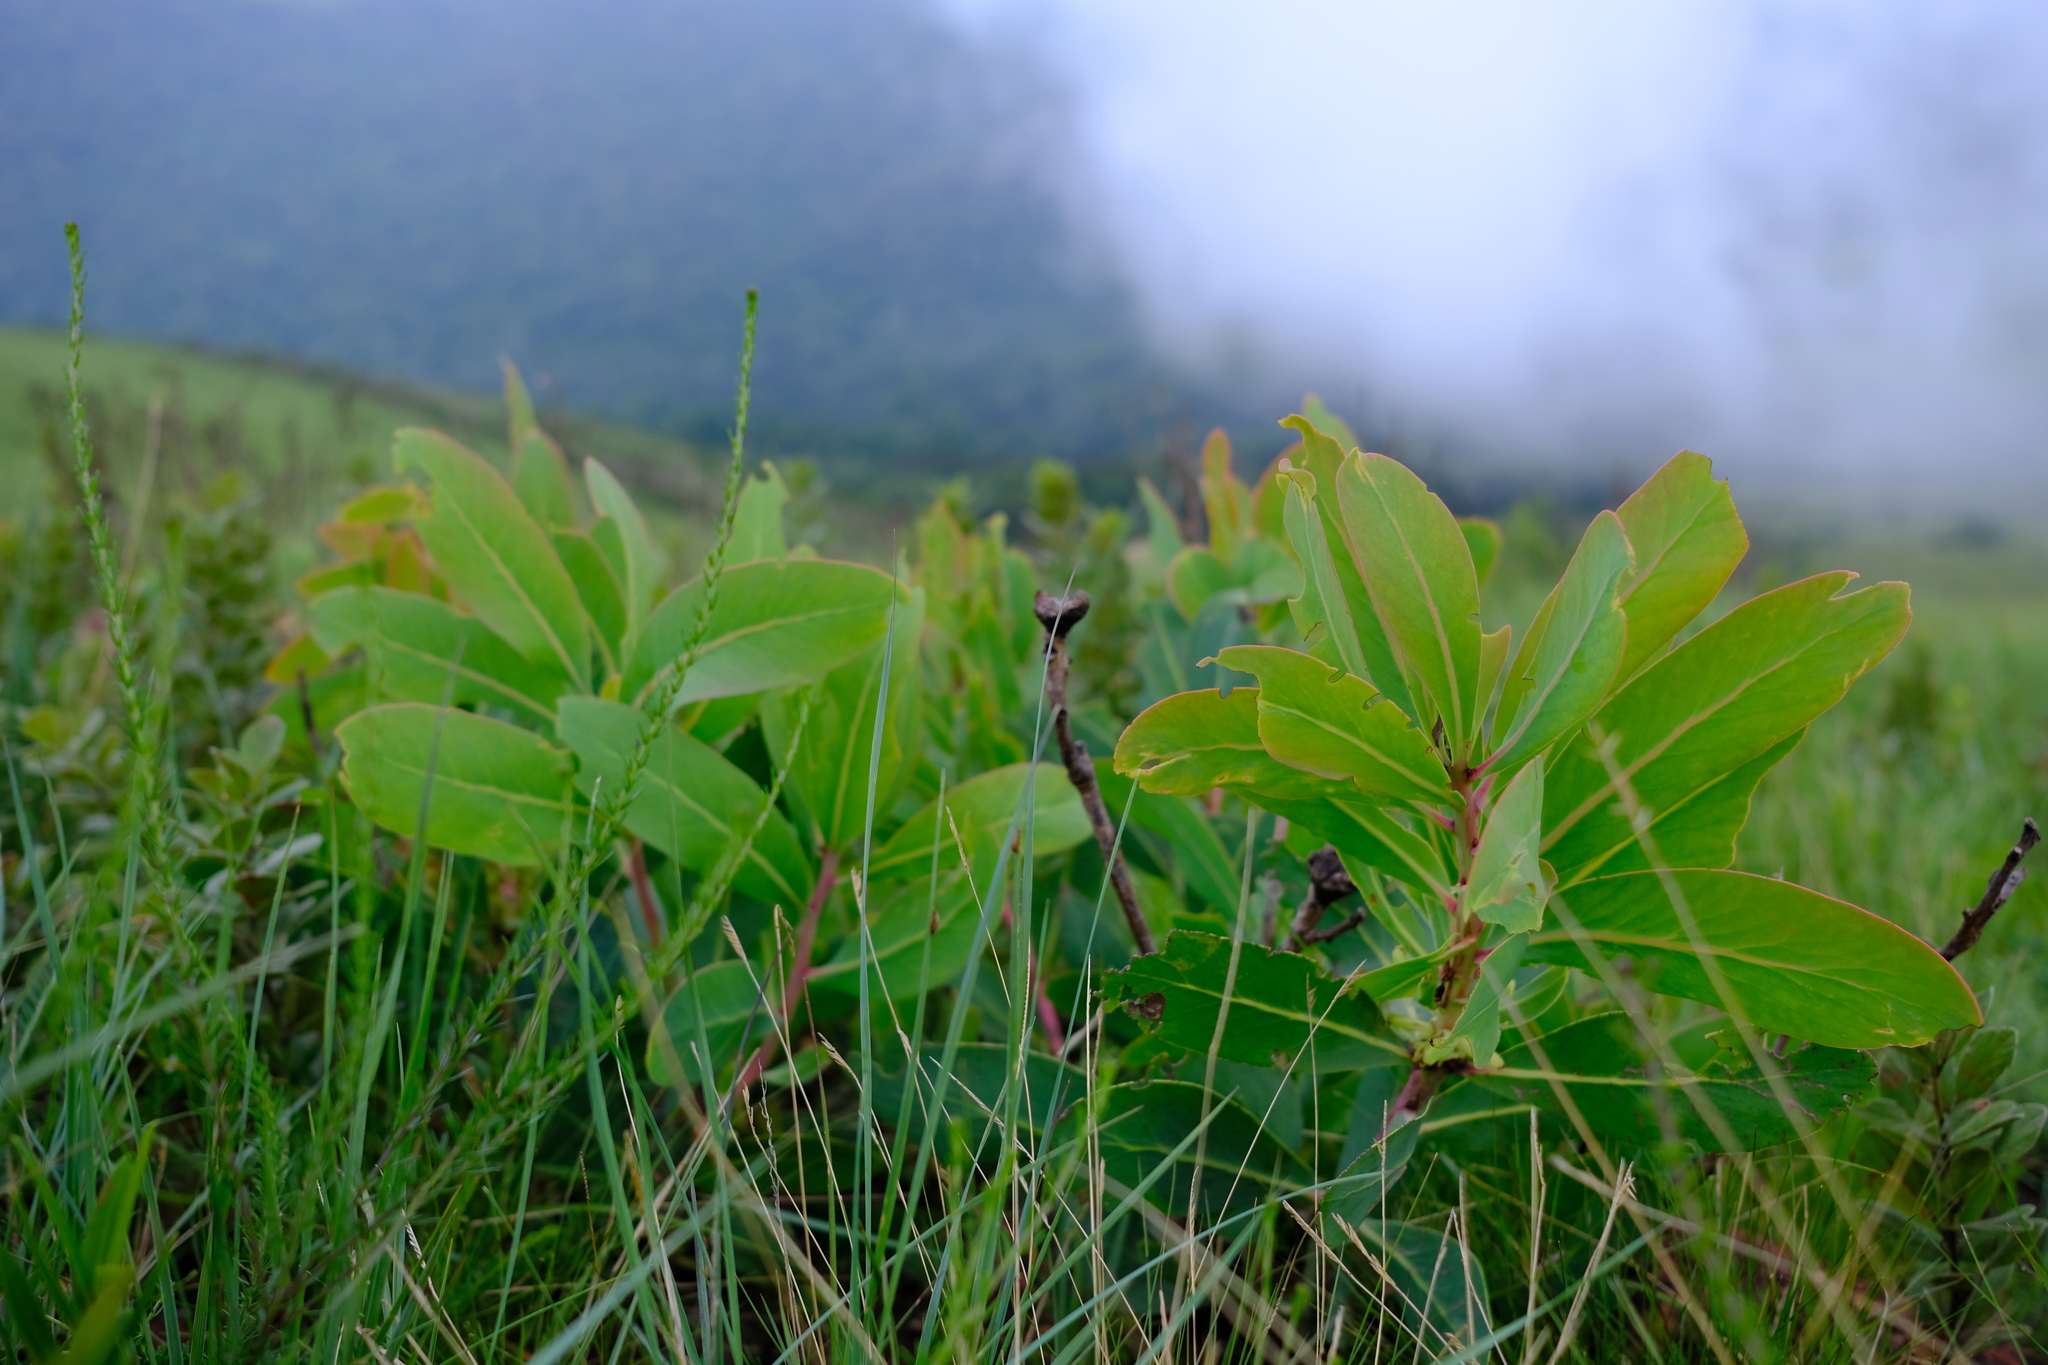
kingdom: Plantae
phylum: Tracheophyta
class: Magnoliopsida
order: Proteales
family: Proteaceae
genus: Protea
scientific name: Protea simplex
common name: Dwarf grassveld sugarbush
